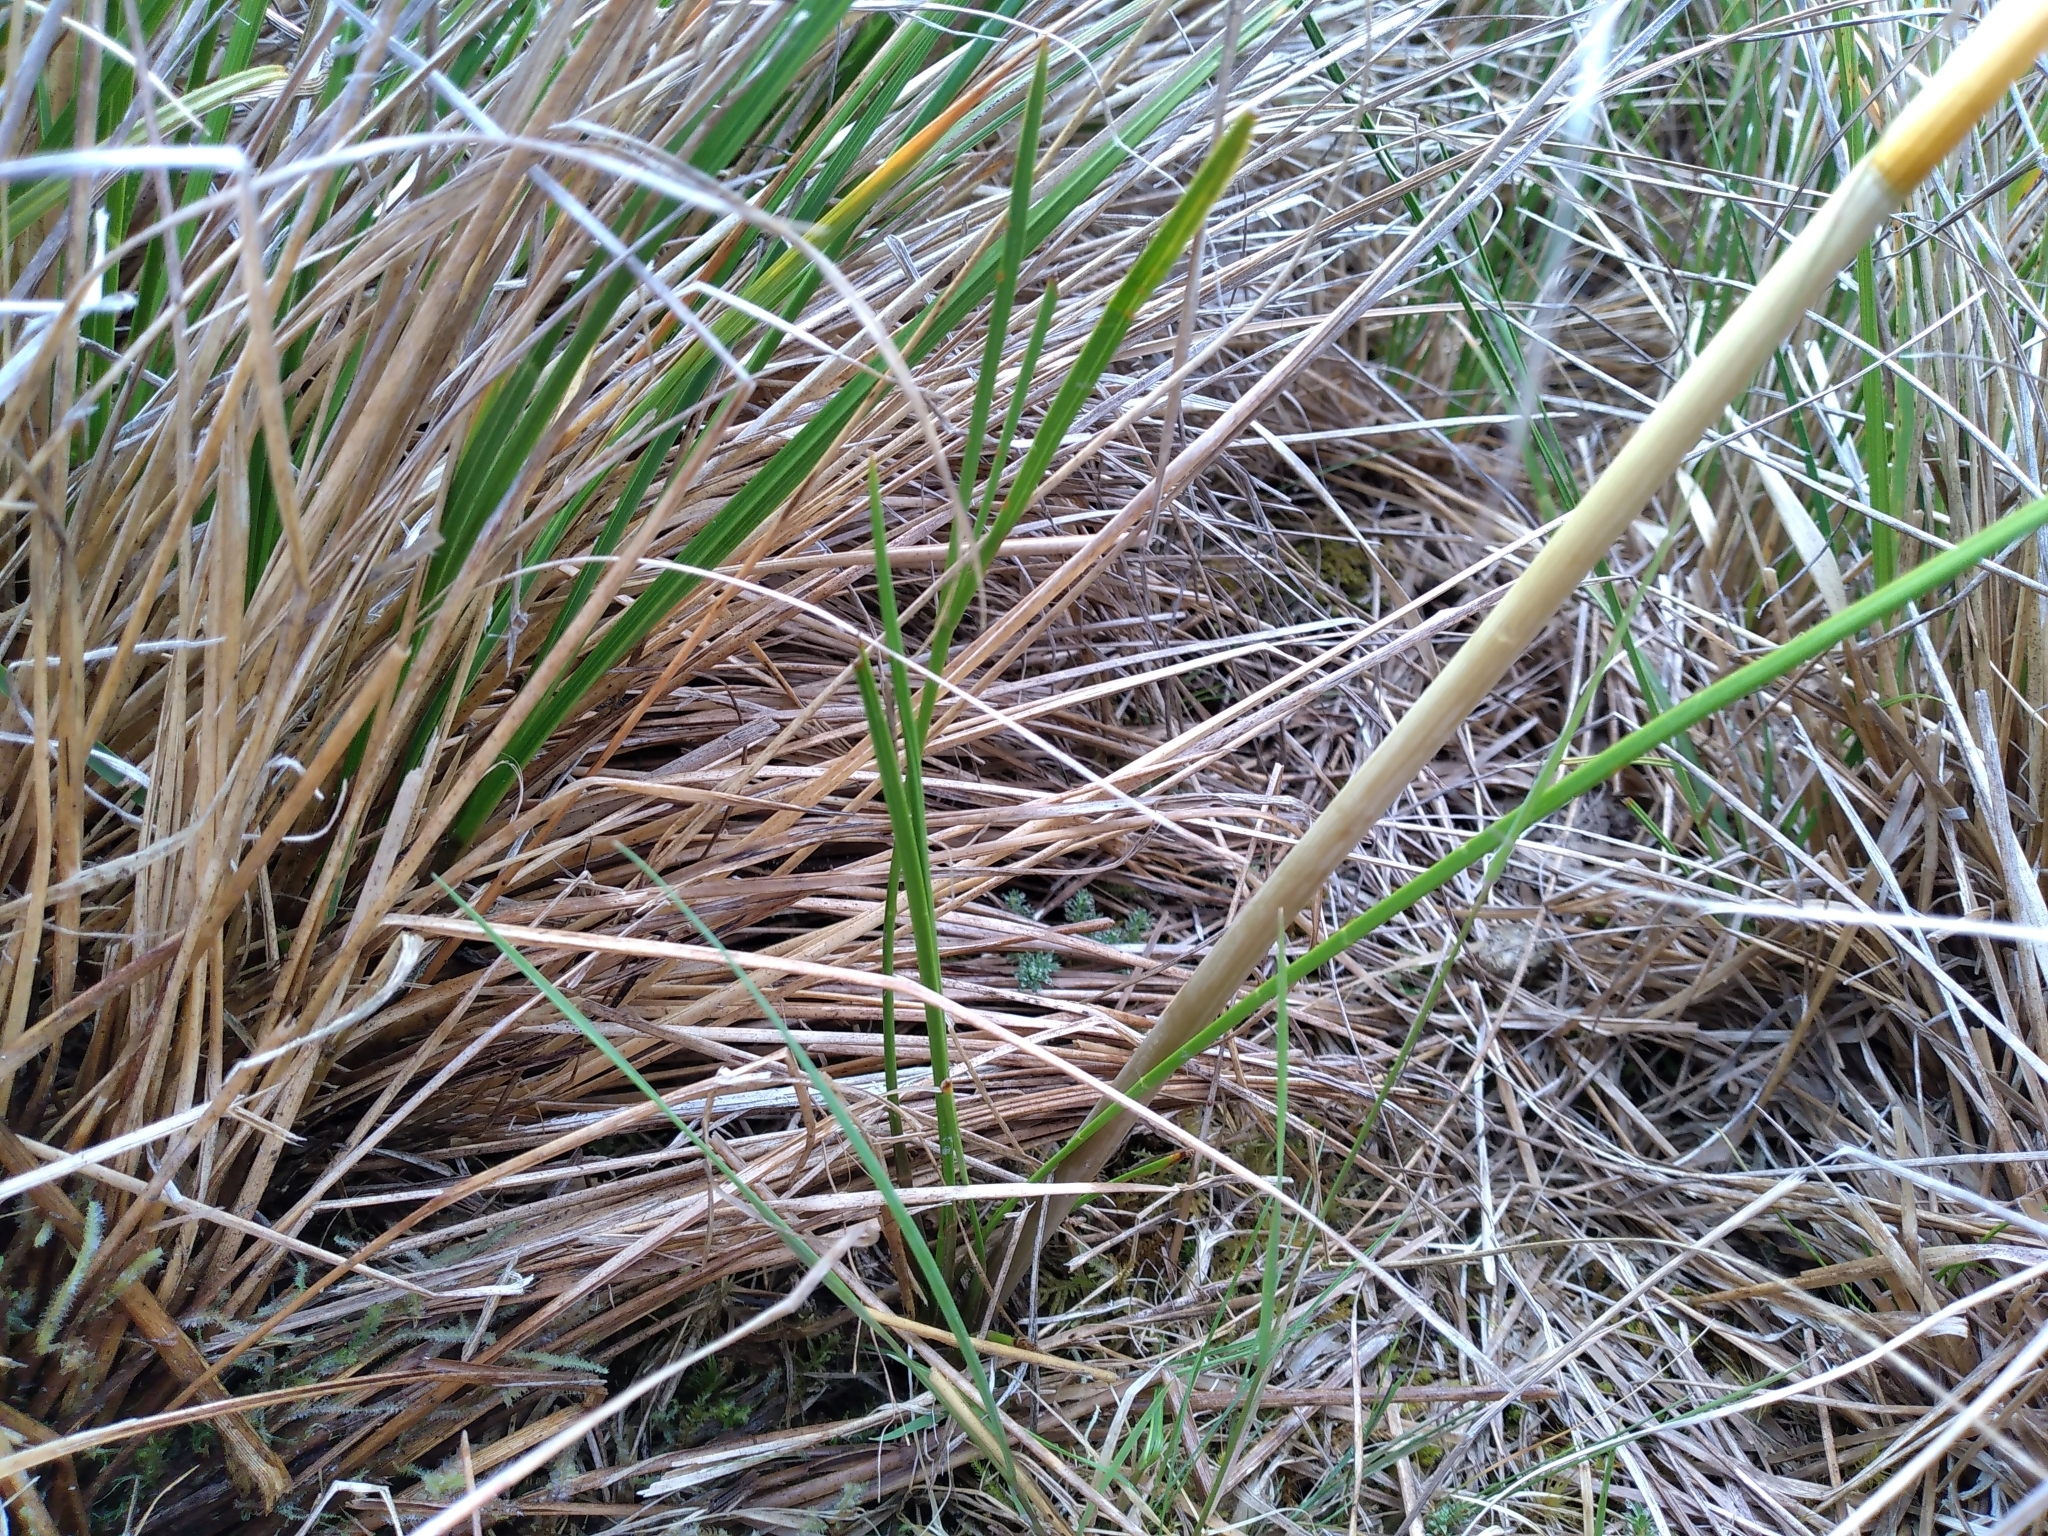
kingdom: Plantae
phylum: Tracheophyta
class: Magnoliopsida
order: Apiales
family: Apiaceae
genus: Aciphylla
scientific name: Aciphylla anomala
